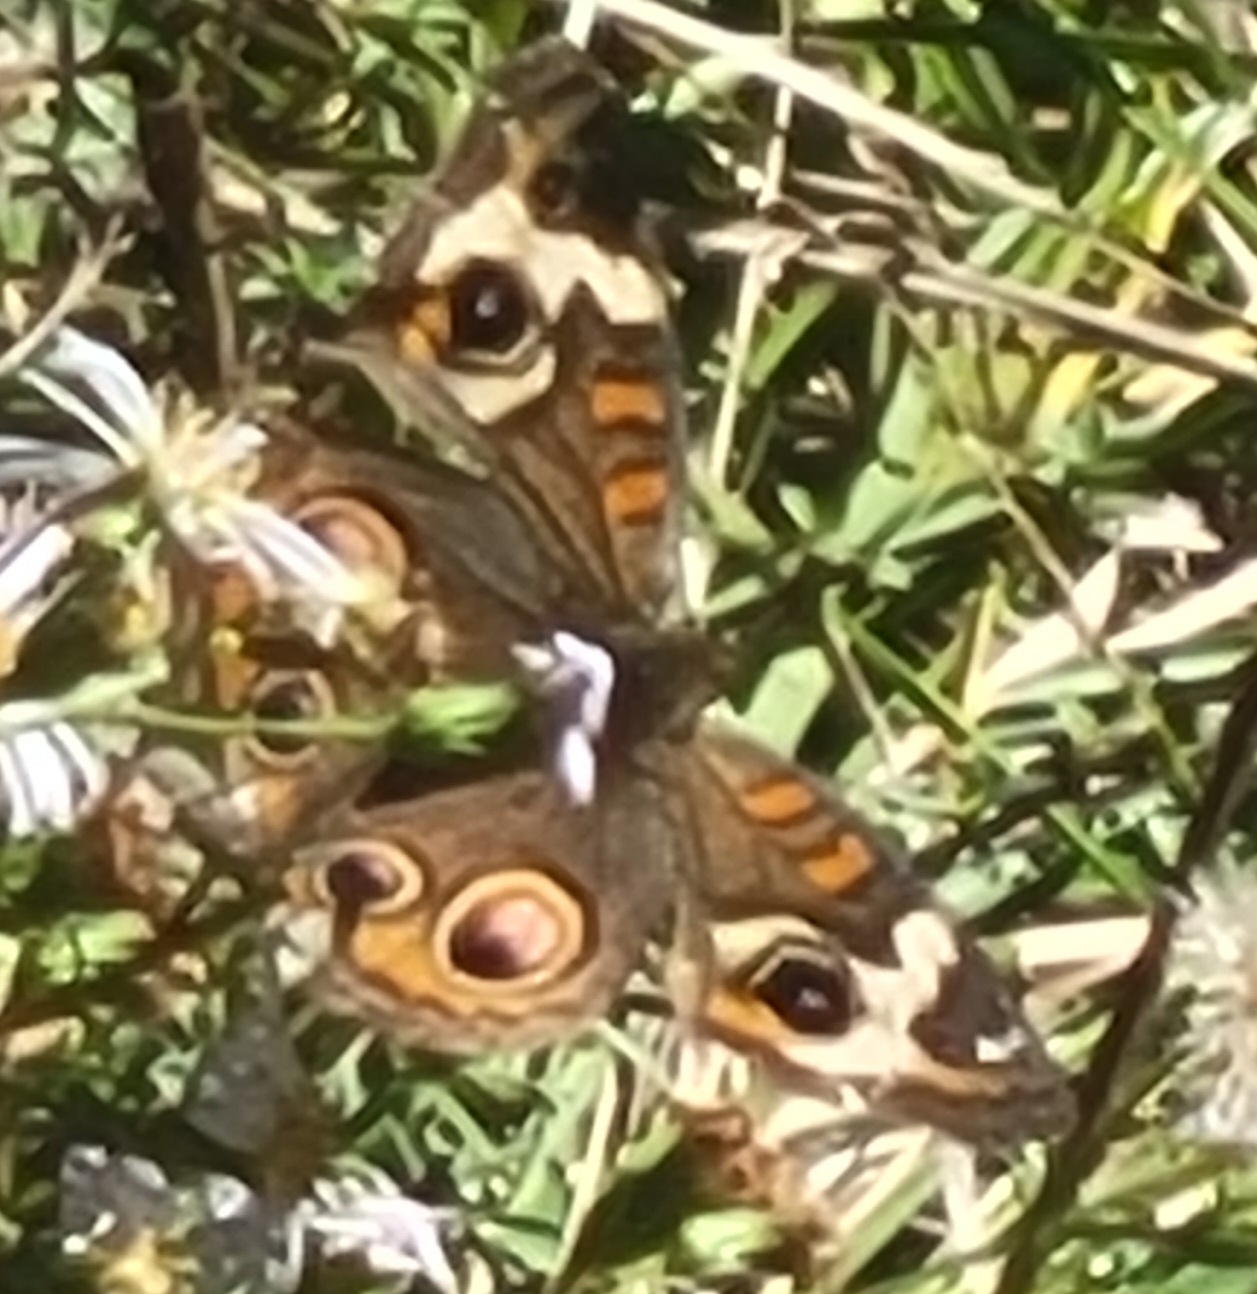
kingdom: Animalia
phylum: Arthropoda
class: Insecta
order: Lepidoptera
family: Nymphalidae
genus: Junonia
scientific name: Junonia coenia
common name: Common buckeye
